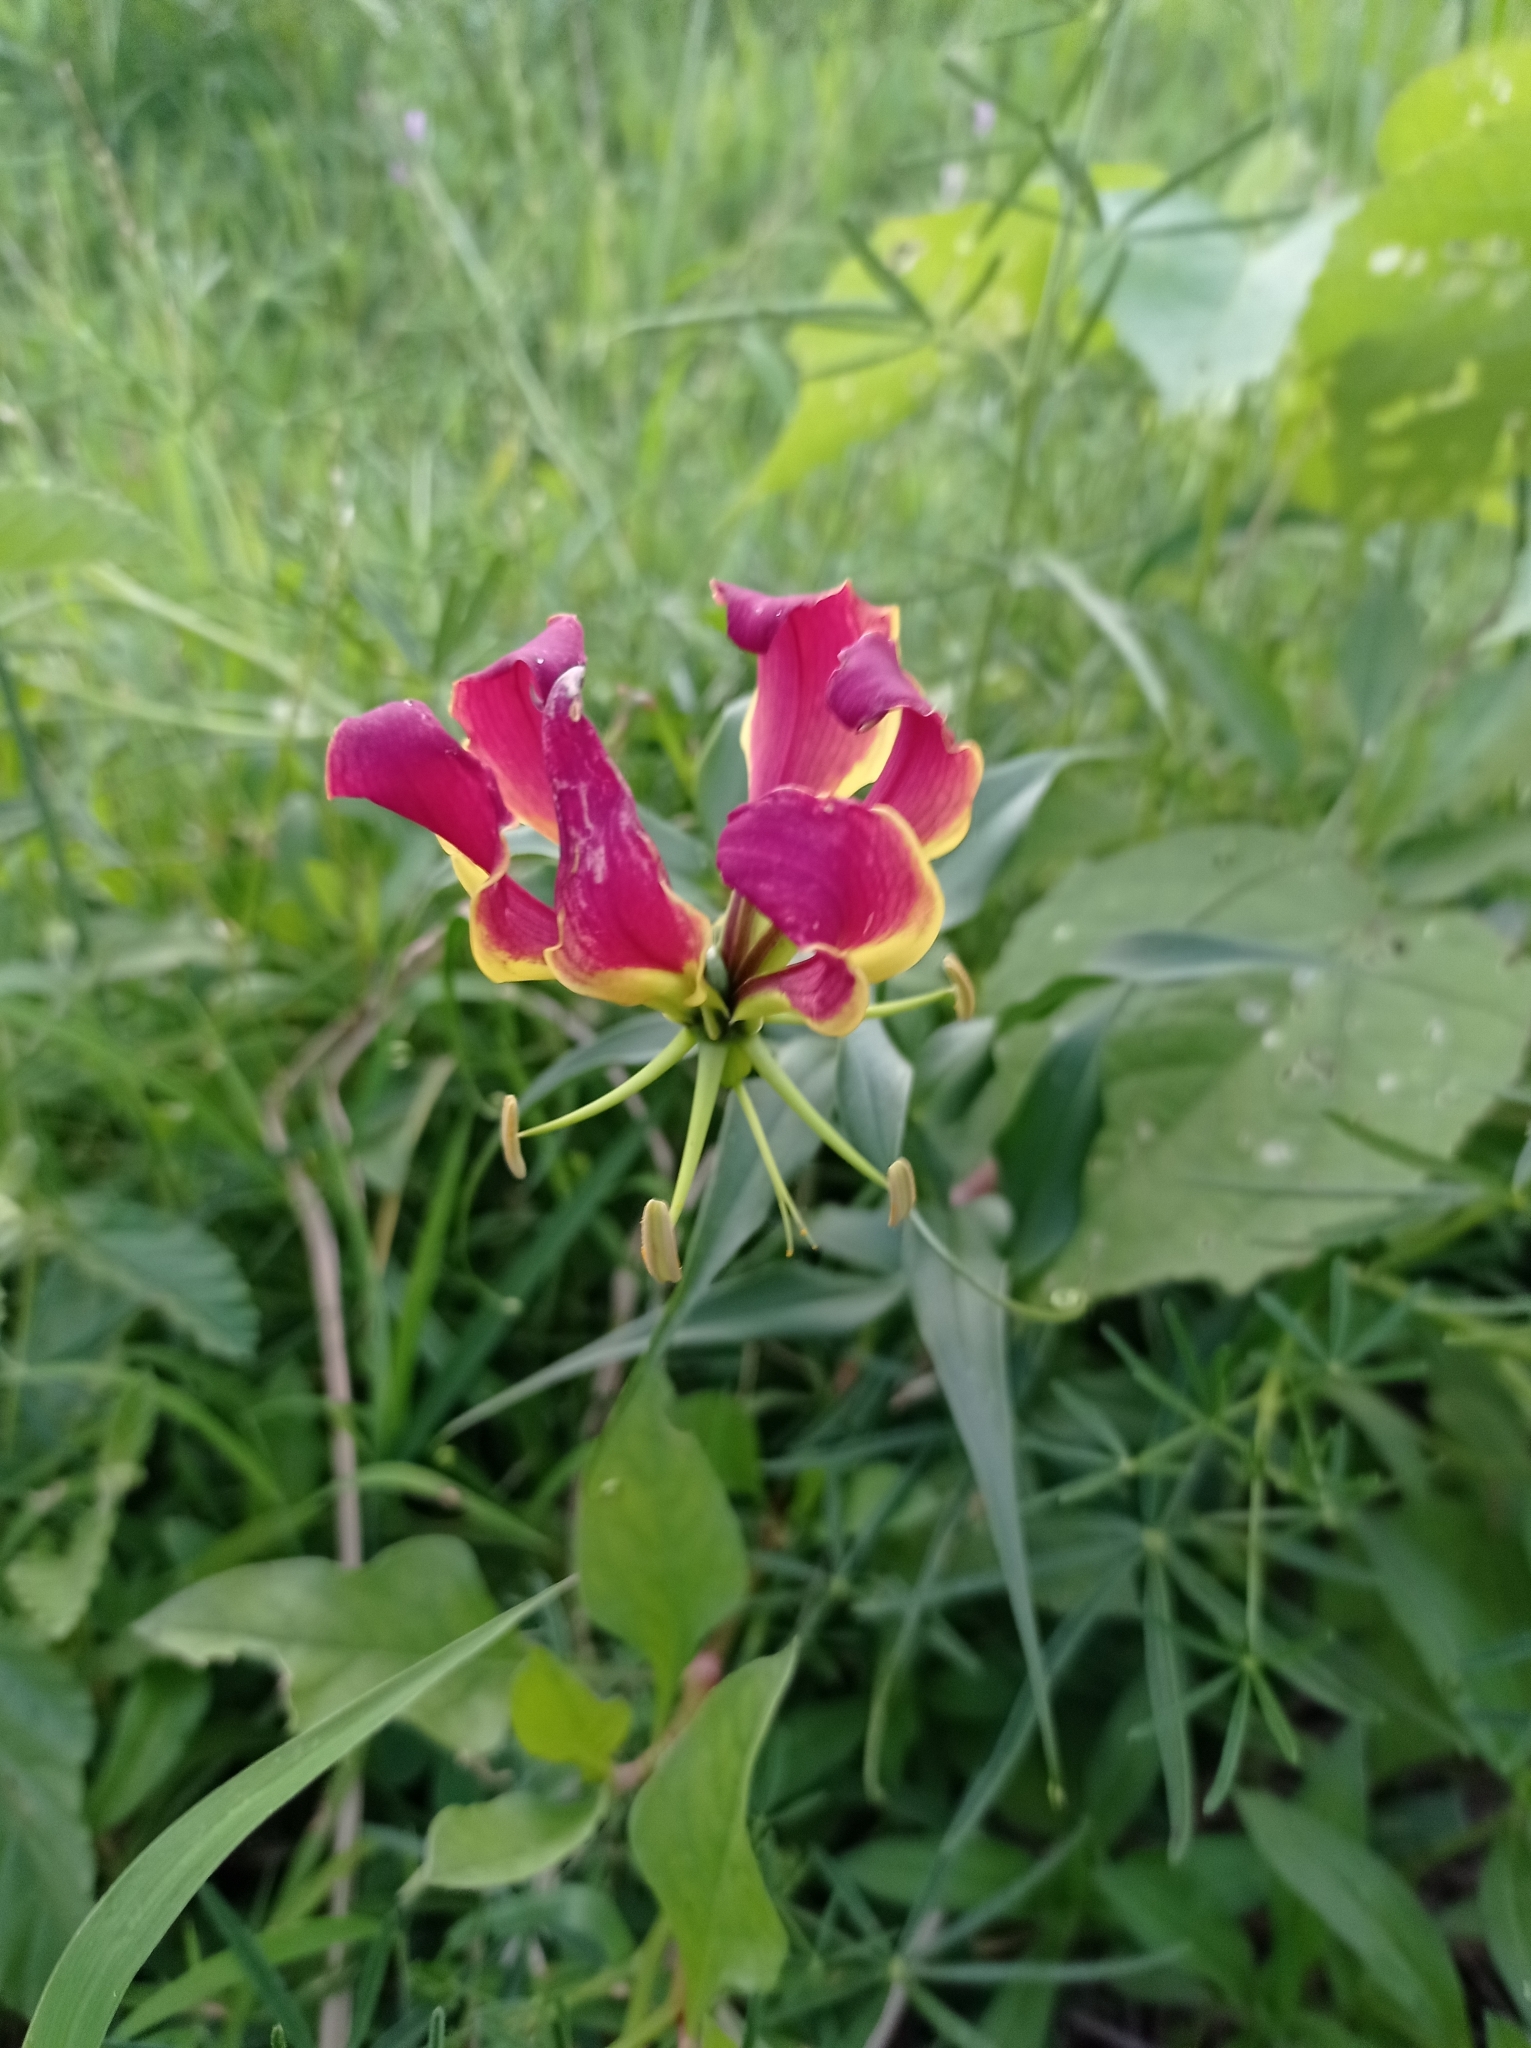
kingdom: Plantae
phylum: Tracheophyta
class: Liliopsida
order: Liliales
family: Colchicaceae
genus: Gloriosa
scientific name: Gloriosa superba
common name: Flame lily
